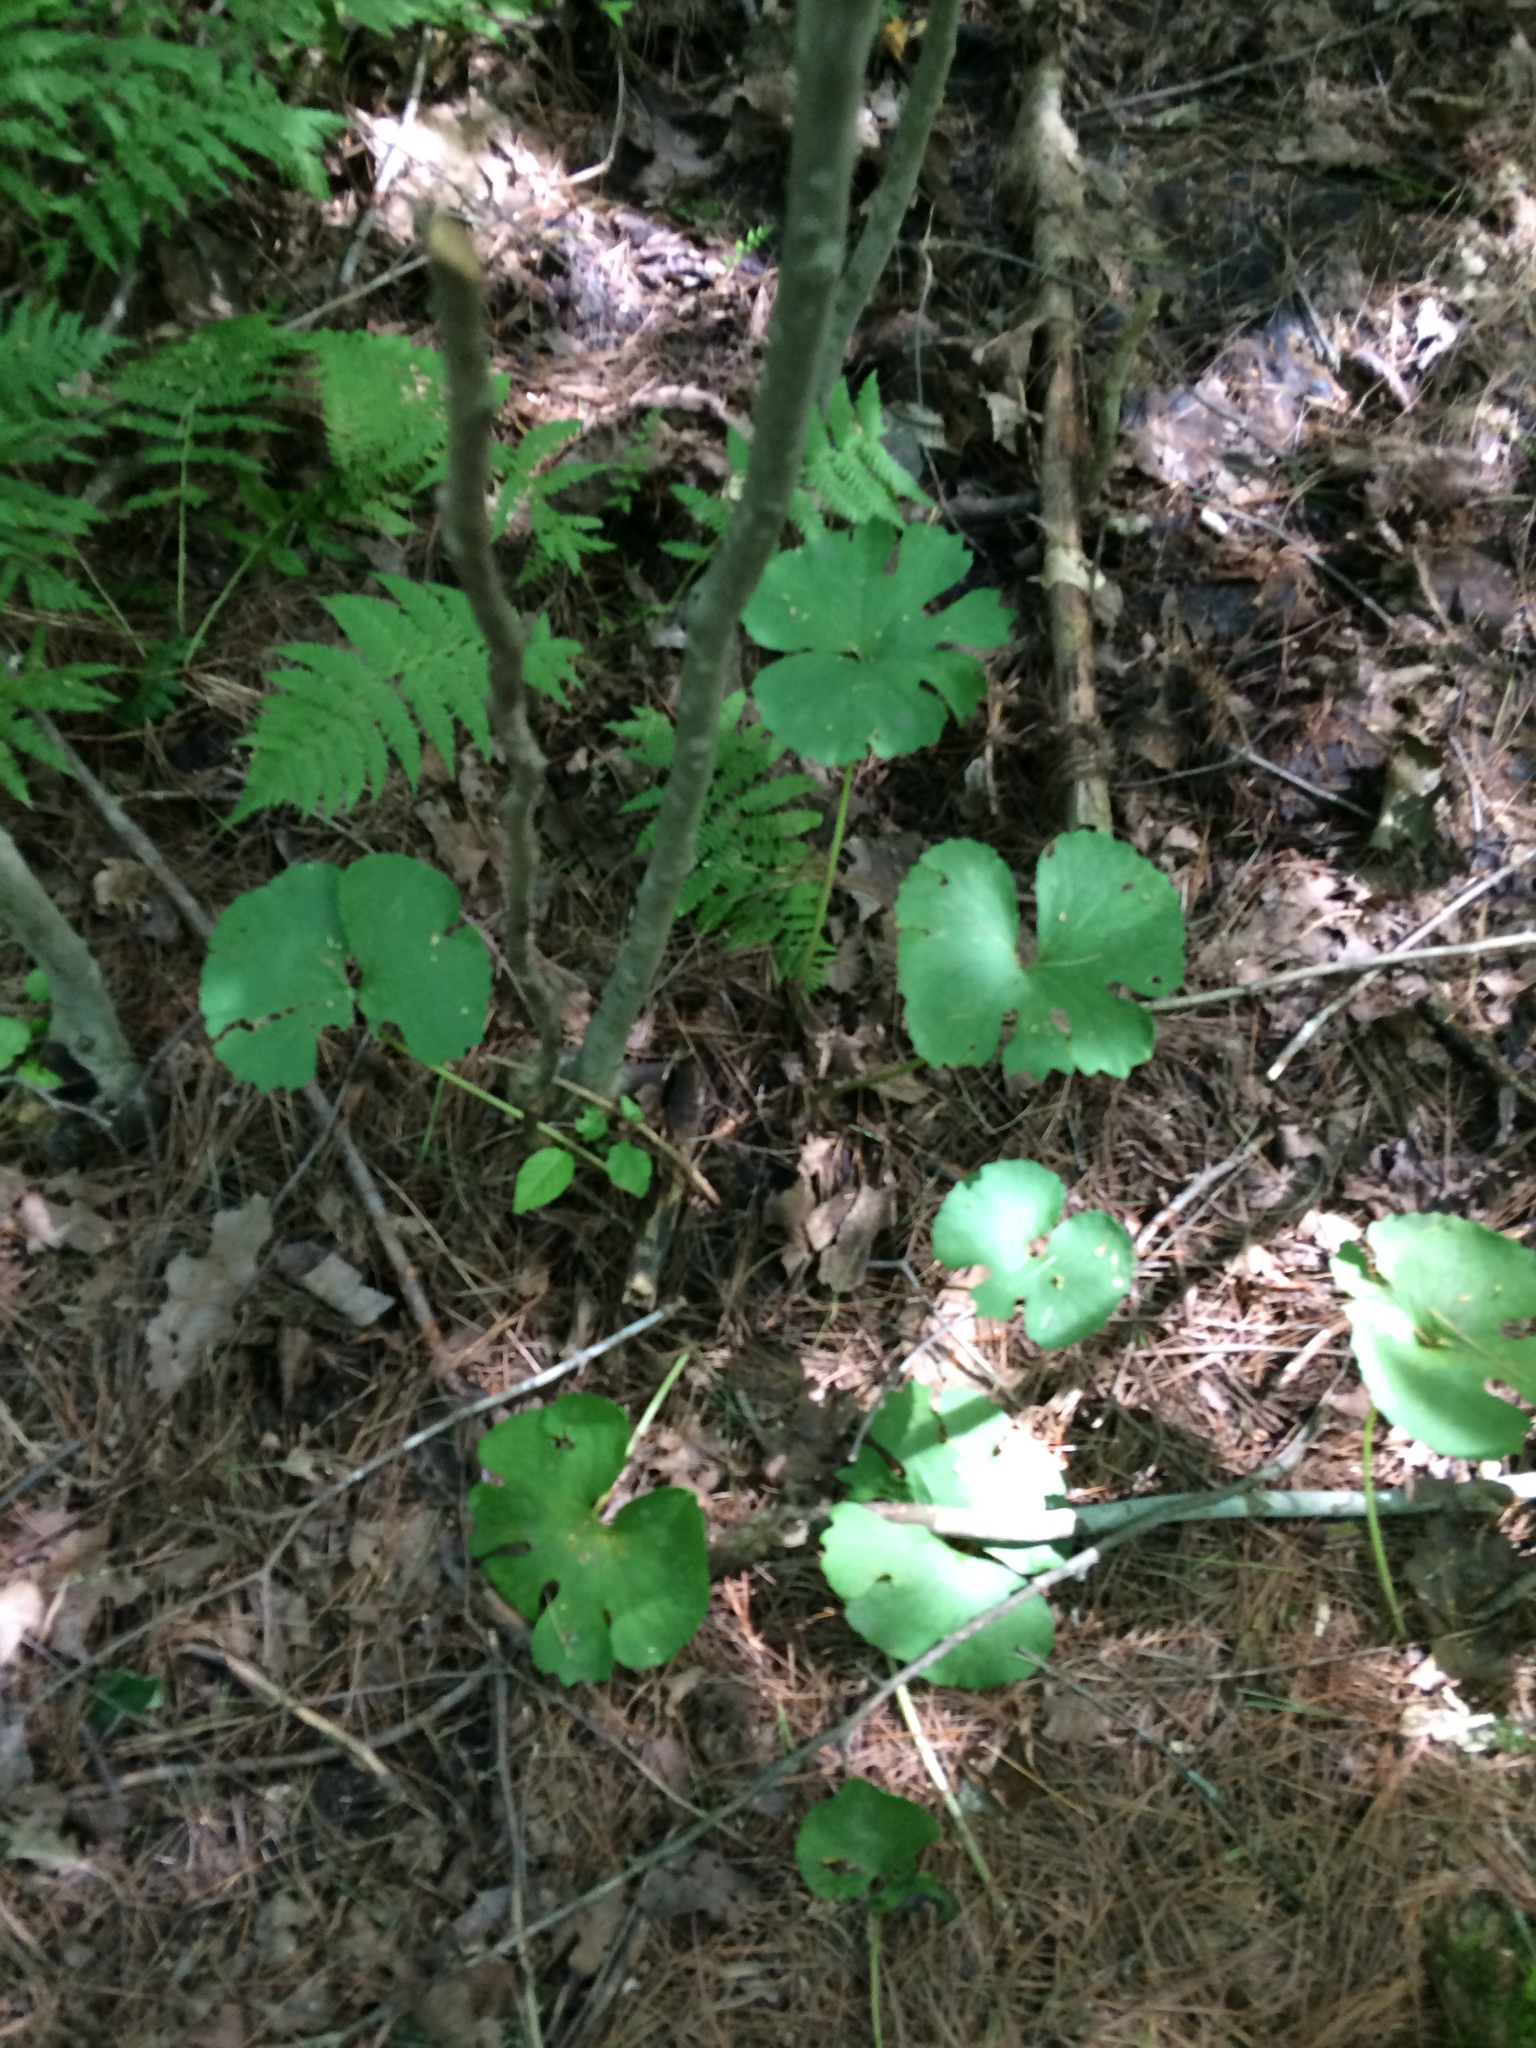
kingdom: Plantae
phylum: Tracheophyta
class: Magnoliopsida
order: Ranunculales
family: Papaveraceae
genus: Sanguinaria
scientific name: Sanguinaria canadensis
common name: Bloodroot
